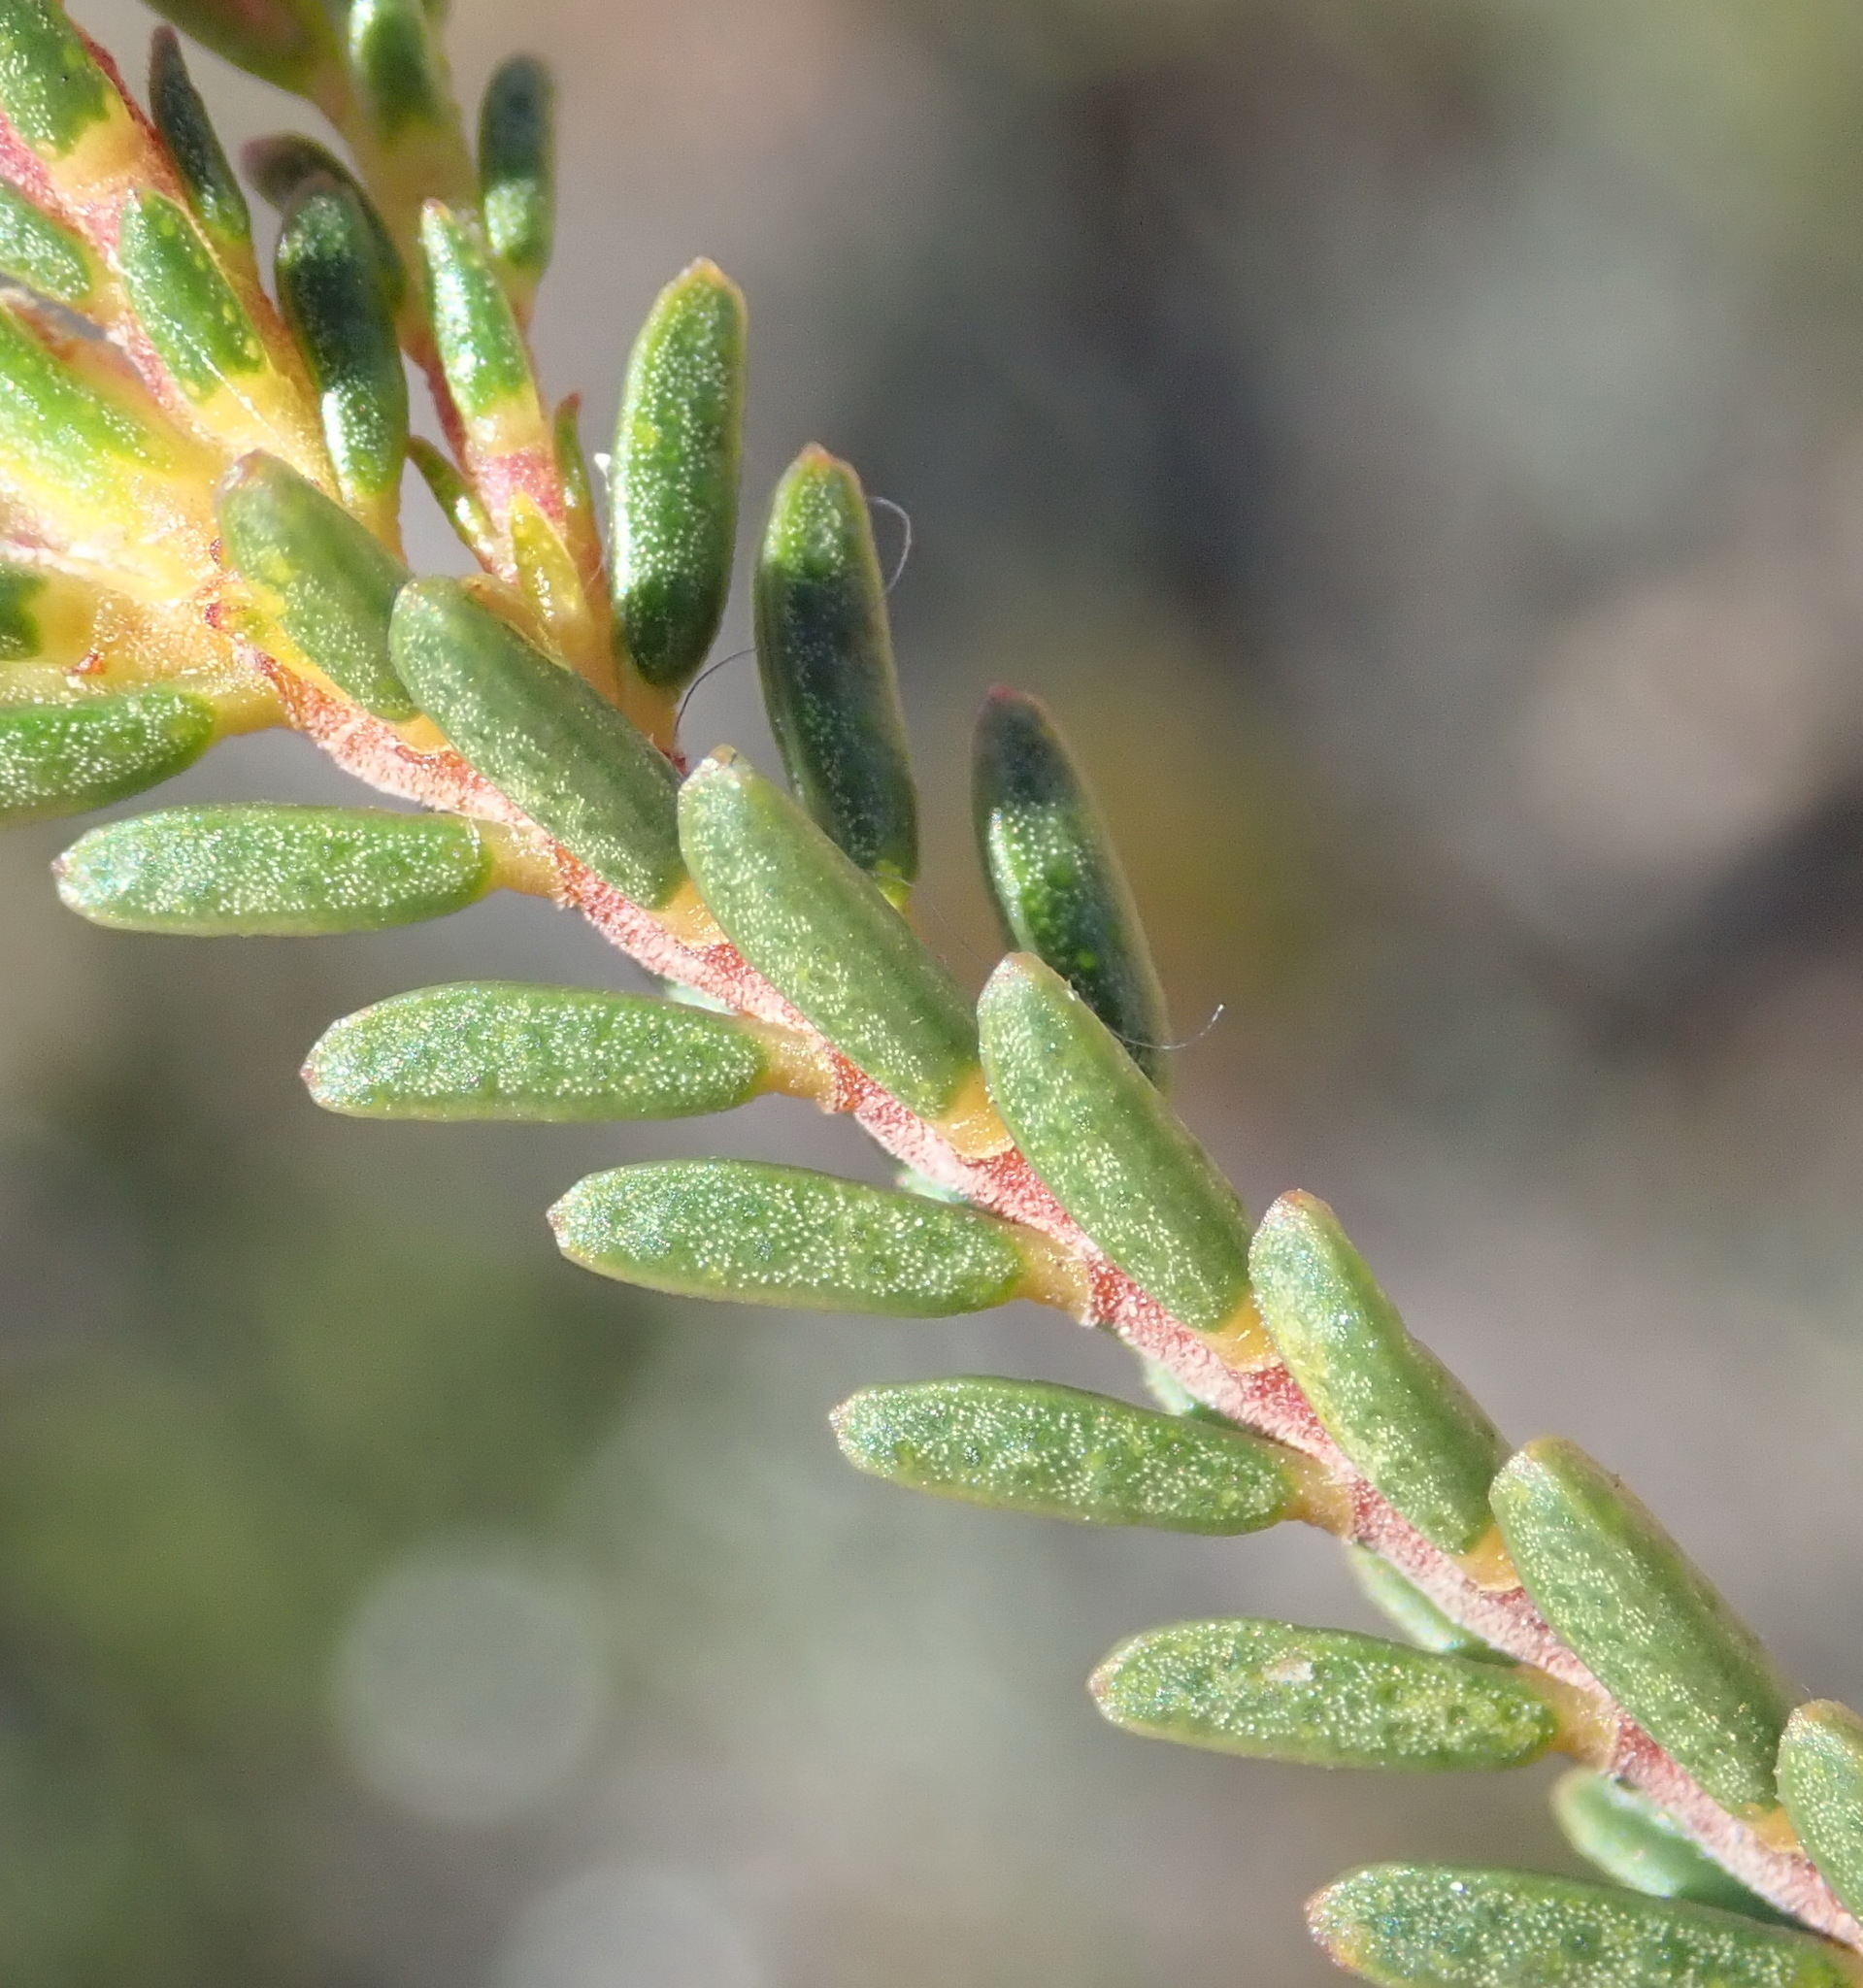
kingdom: Plantae
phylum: Tracheophyta
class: Magnoliopsida
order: Sapindales
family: Rutaceae
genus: Acmadenia
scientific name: Acmadenia sheilae
